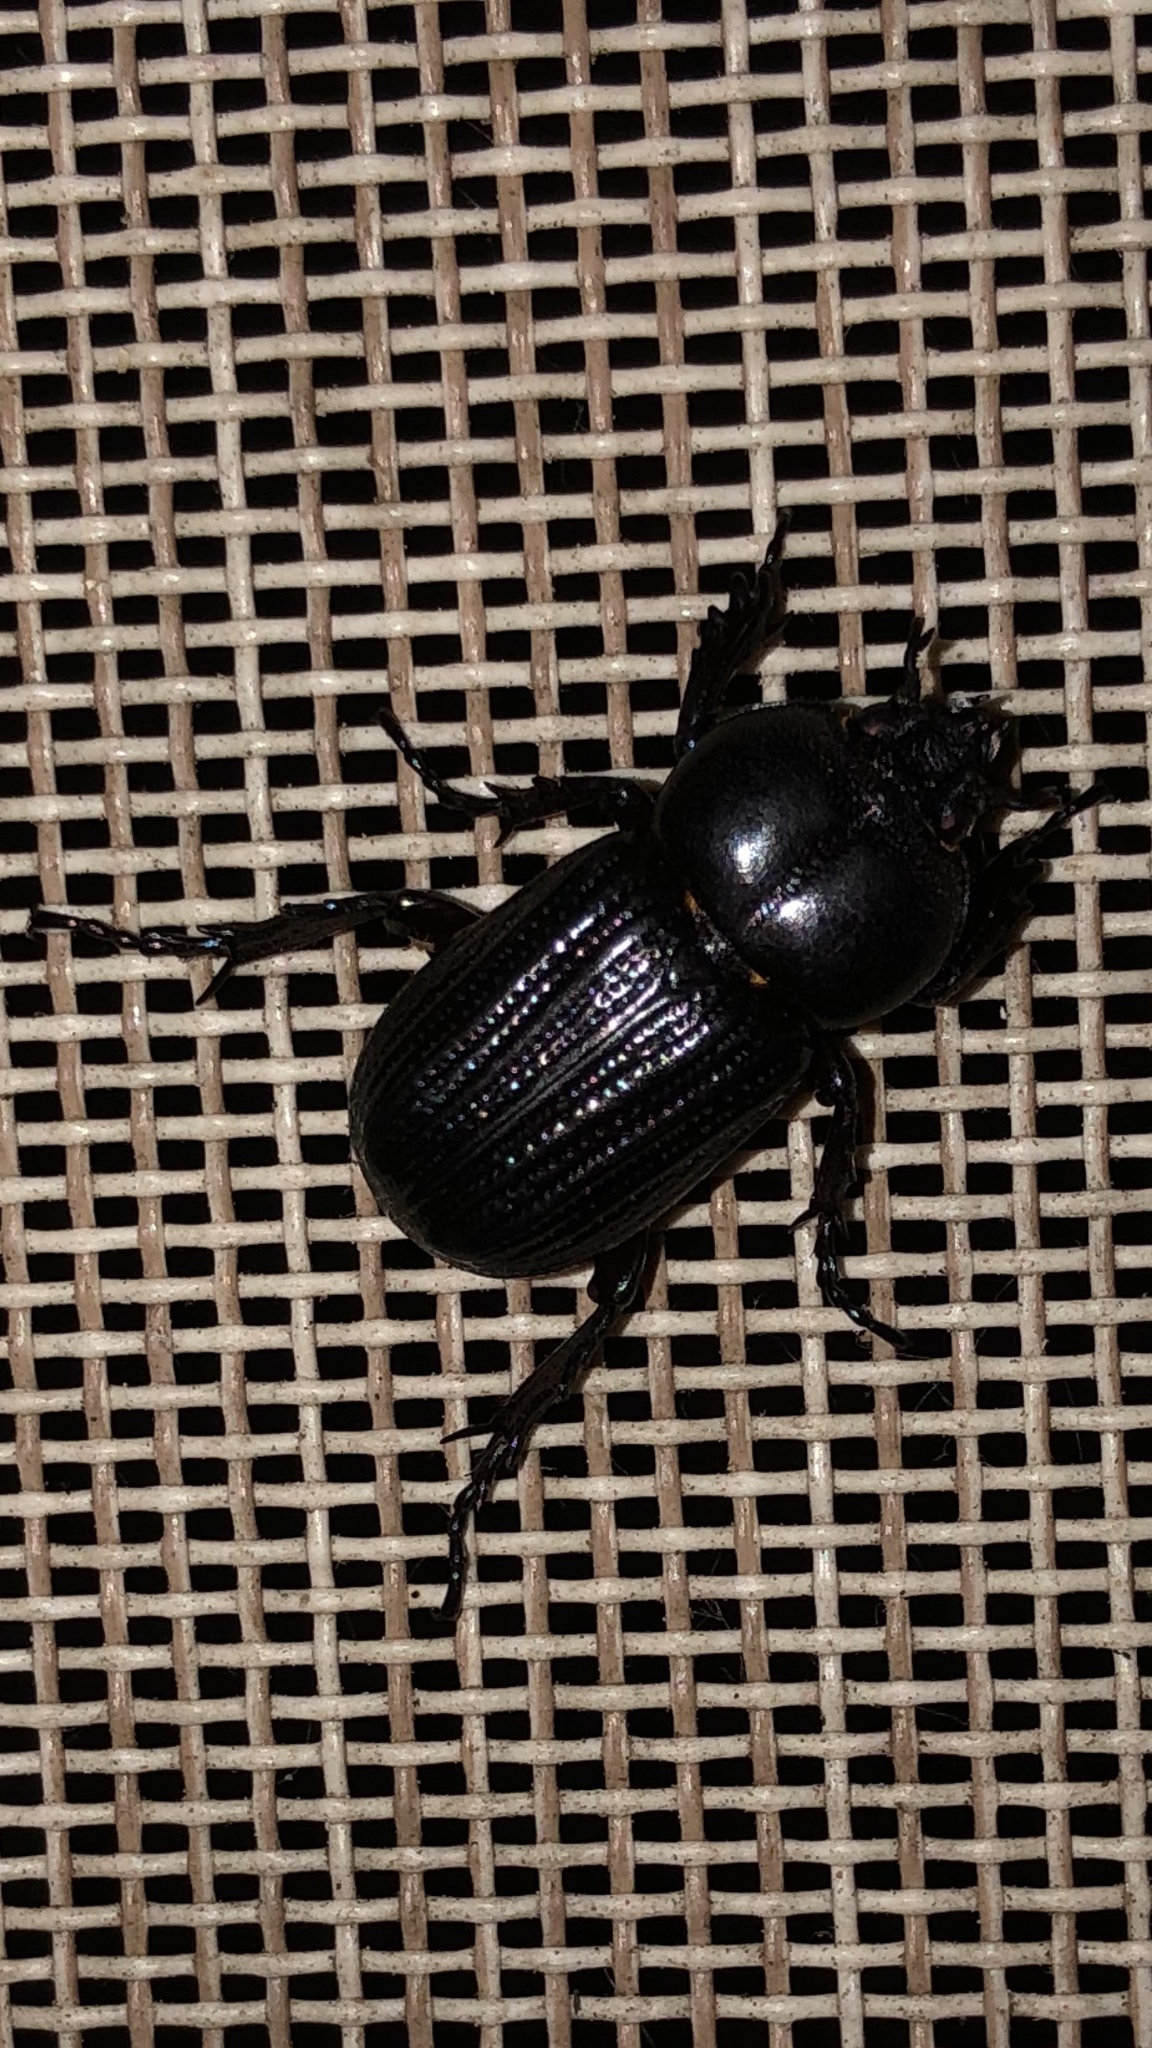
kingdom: Animalia
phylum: Arthropoda
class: Insecta
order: Coleoptera
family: Scarabaeidae
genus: Phileurus
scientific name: Phileurus valgus
